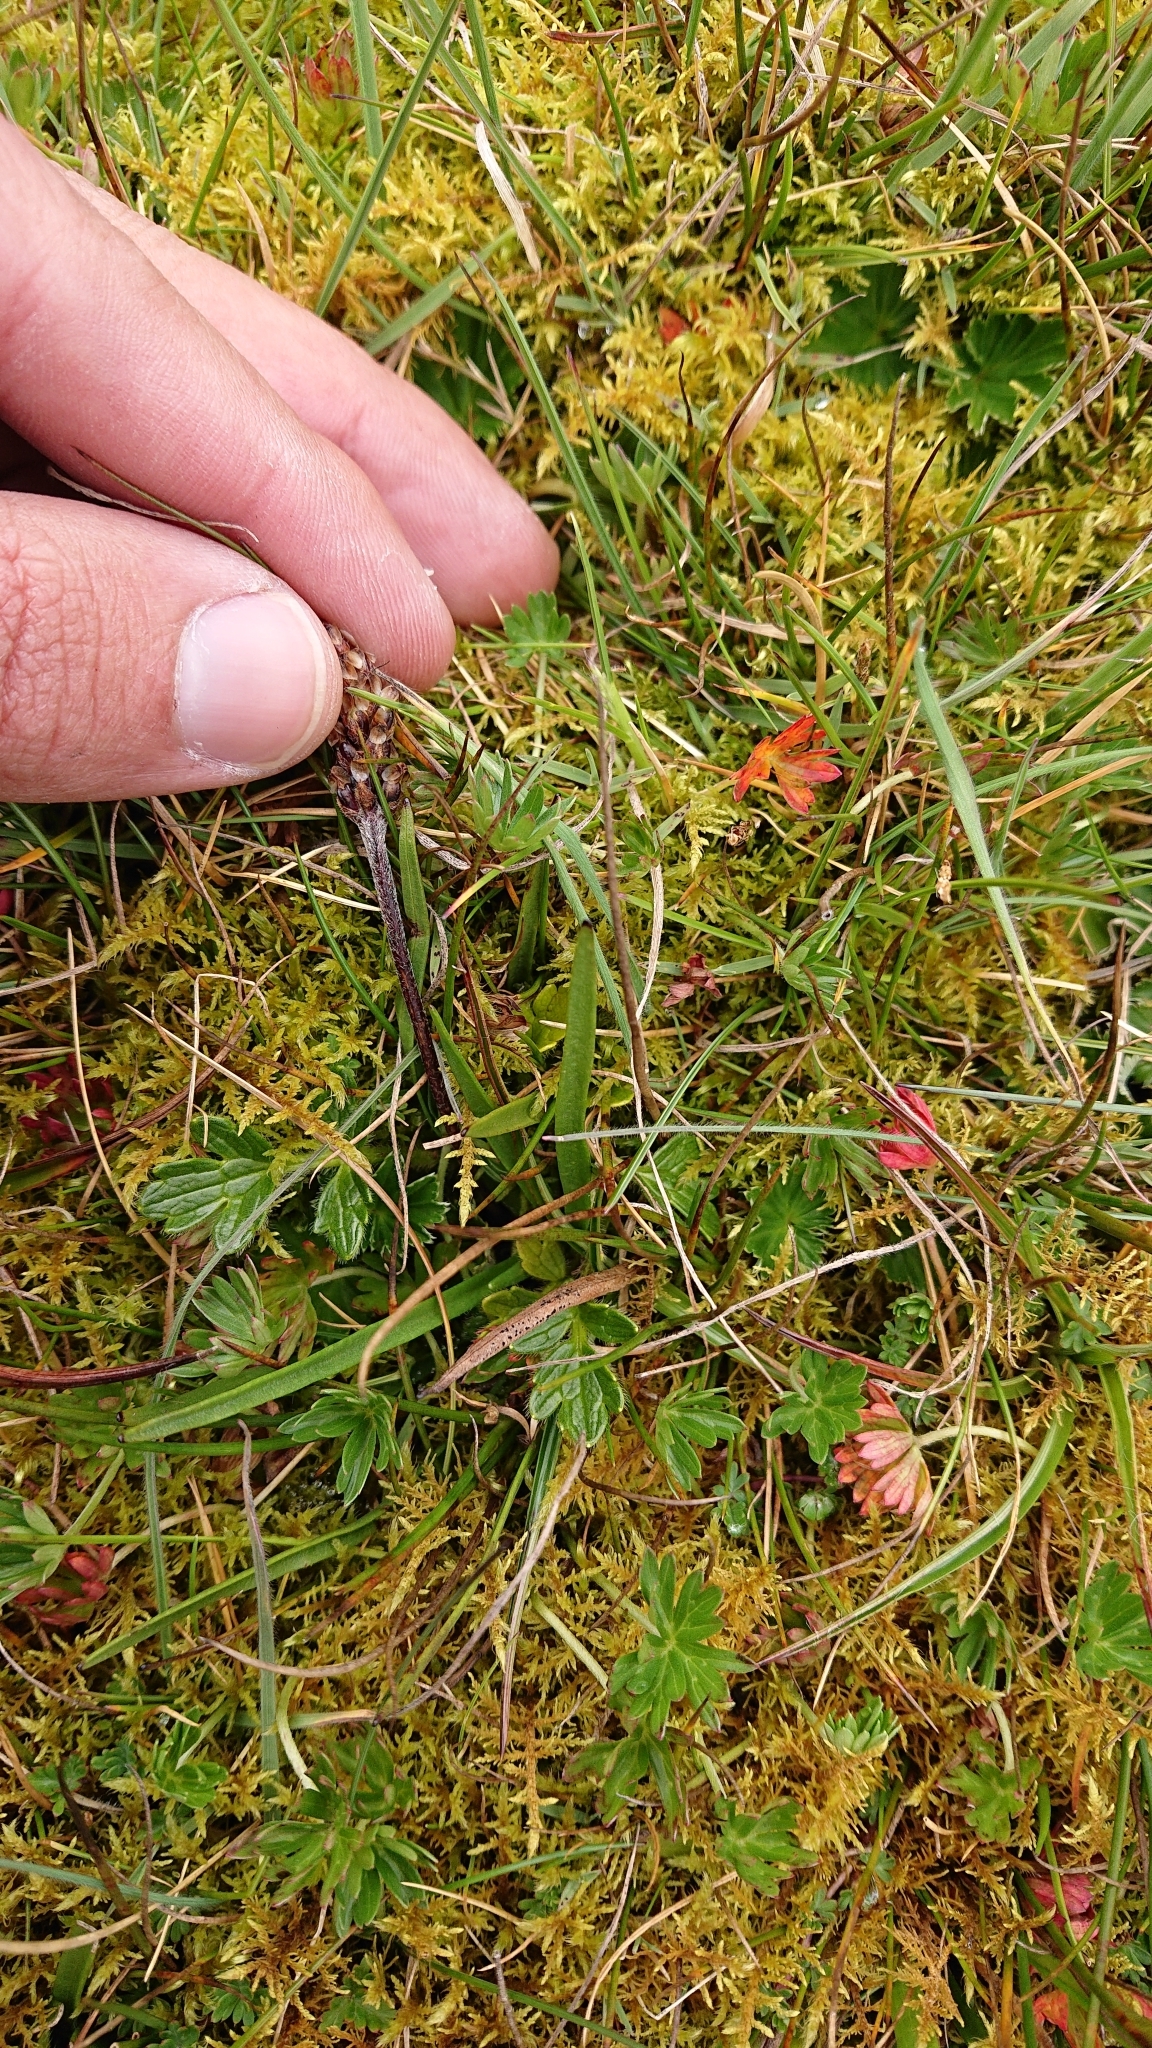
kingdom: Plantae
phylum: Tracheophyta
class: Magnoliopsida
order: Lamiales
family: Plantaginaceae
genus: Plantago
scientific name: Plantago linearis
